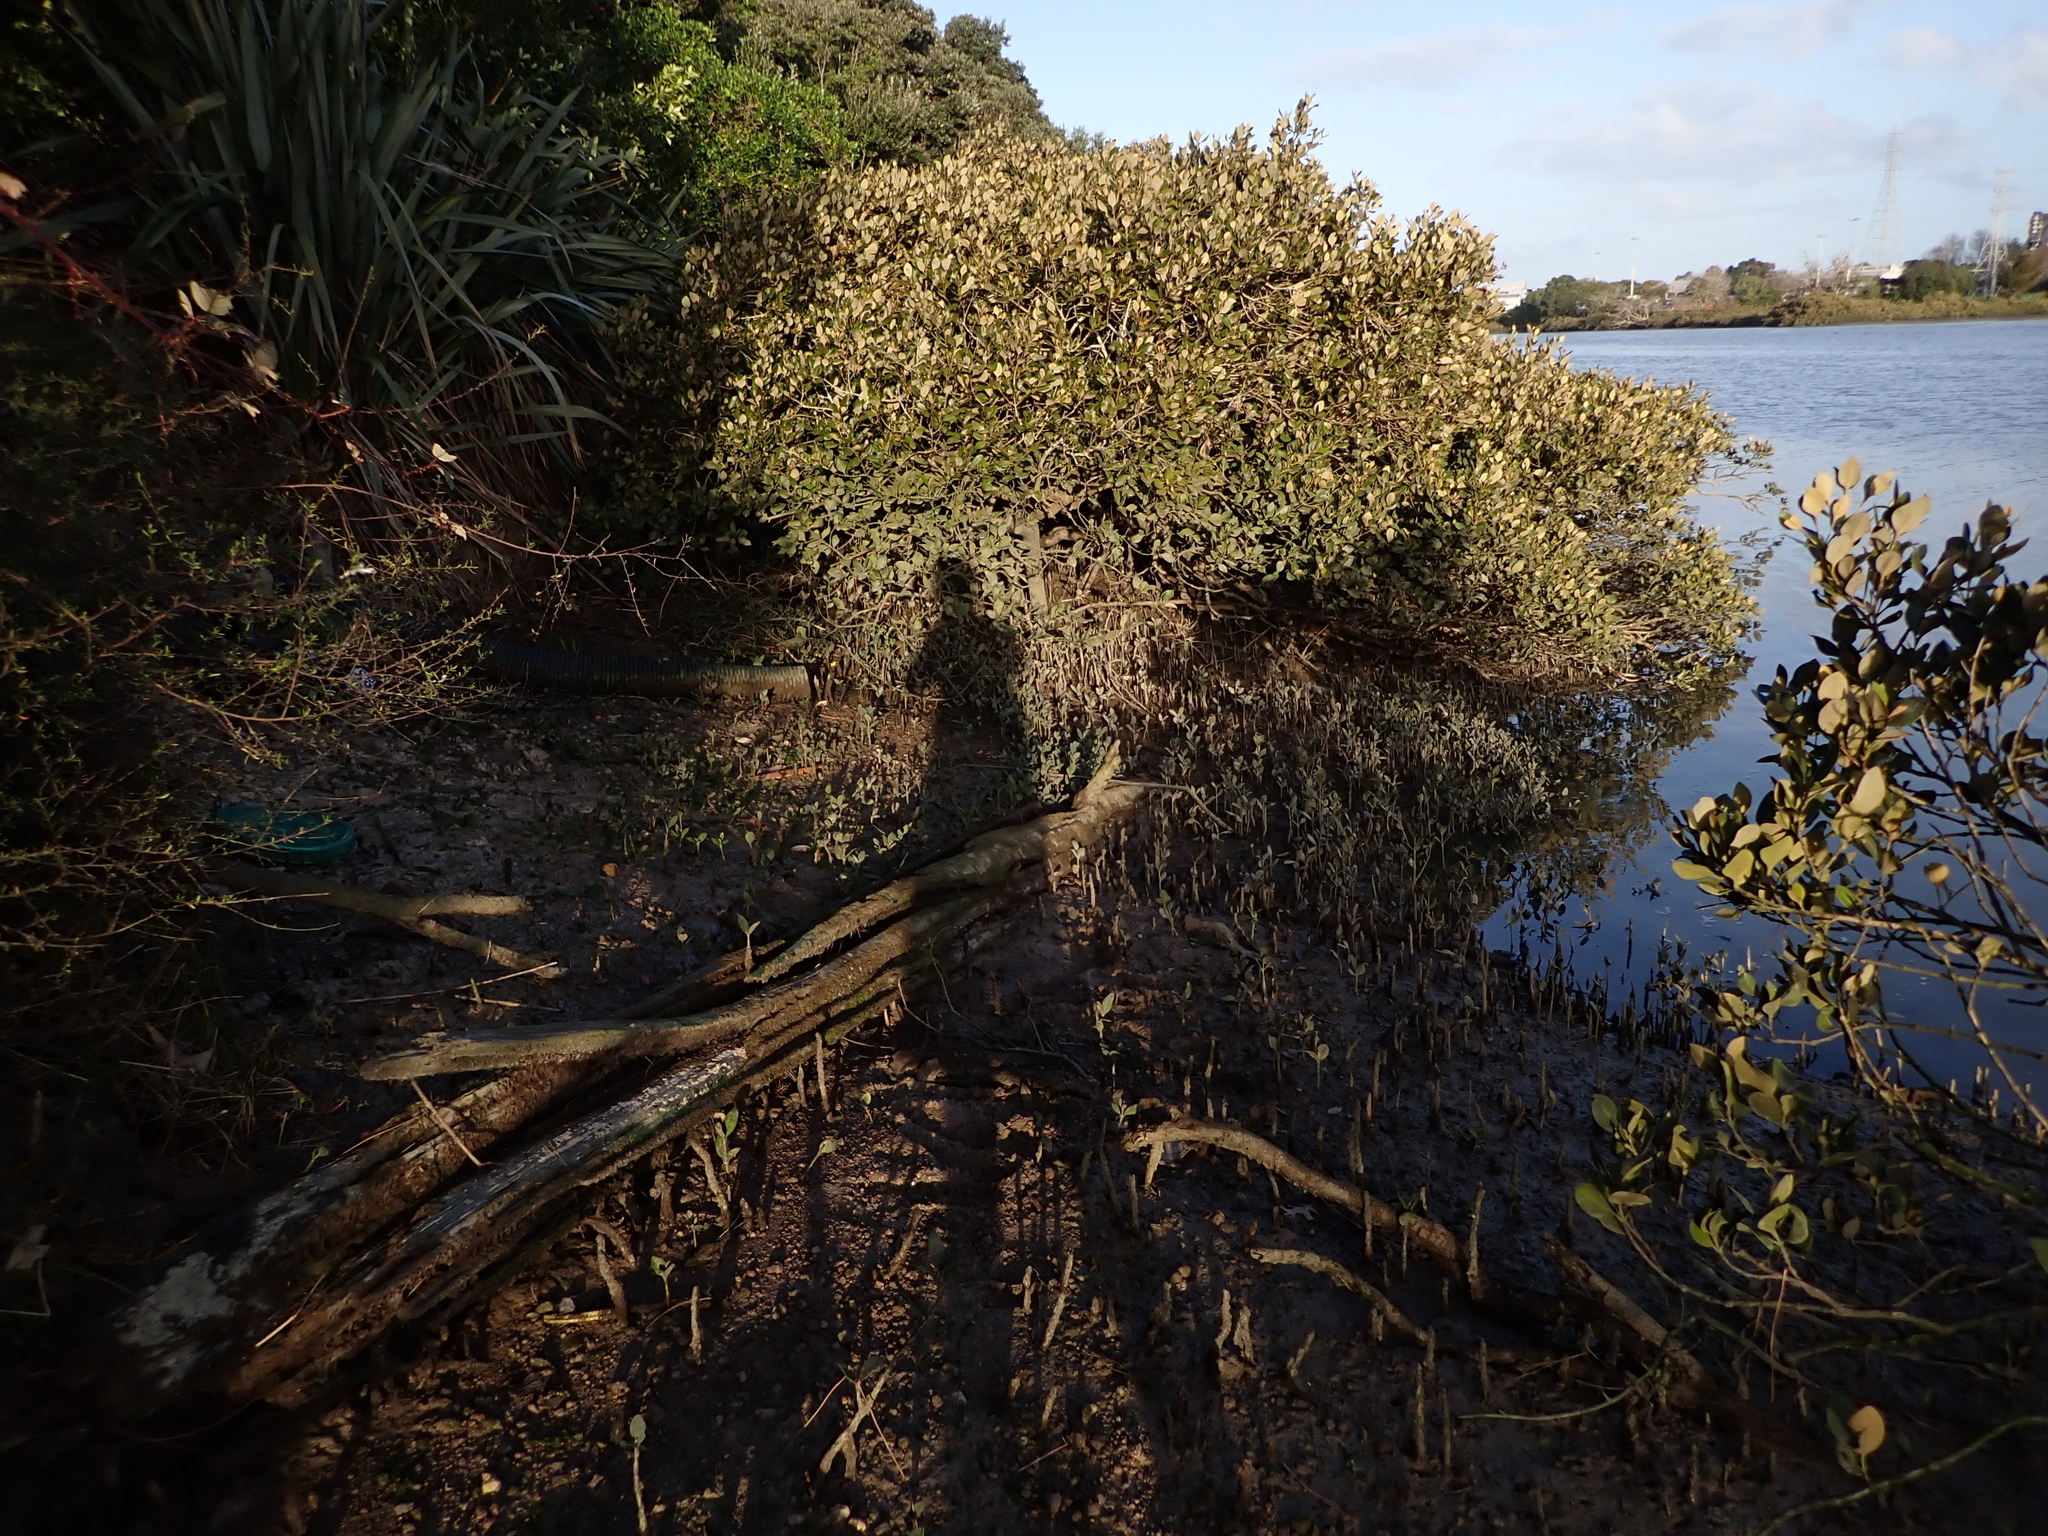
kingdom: Plantae
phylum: Rhodophyta
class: Florideophyceae
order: Ceramiales
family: Delesseriaceae
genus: Caloglossa
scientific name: Caloglossa vieillardii
